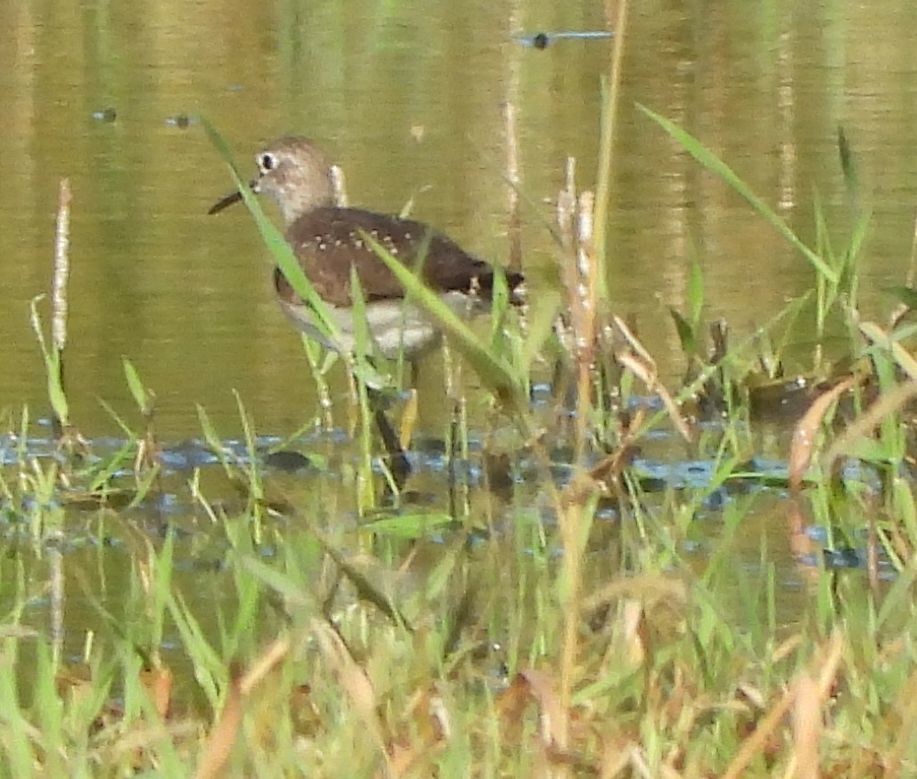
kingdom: Animalia
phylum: Chordata
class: Aves
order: Charadriiformes
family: Scolopacidae
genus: Tringa
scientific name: Tringa solitaria
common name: Solitary sandpiper
